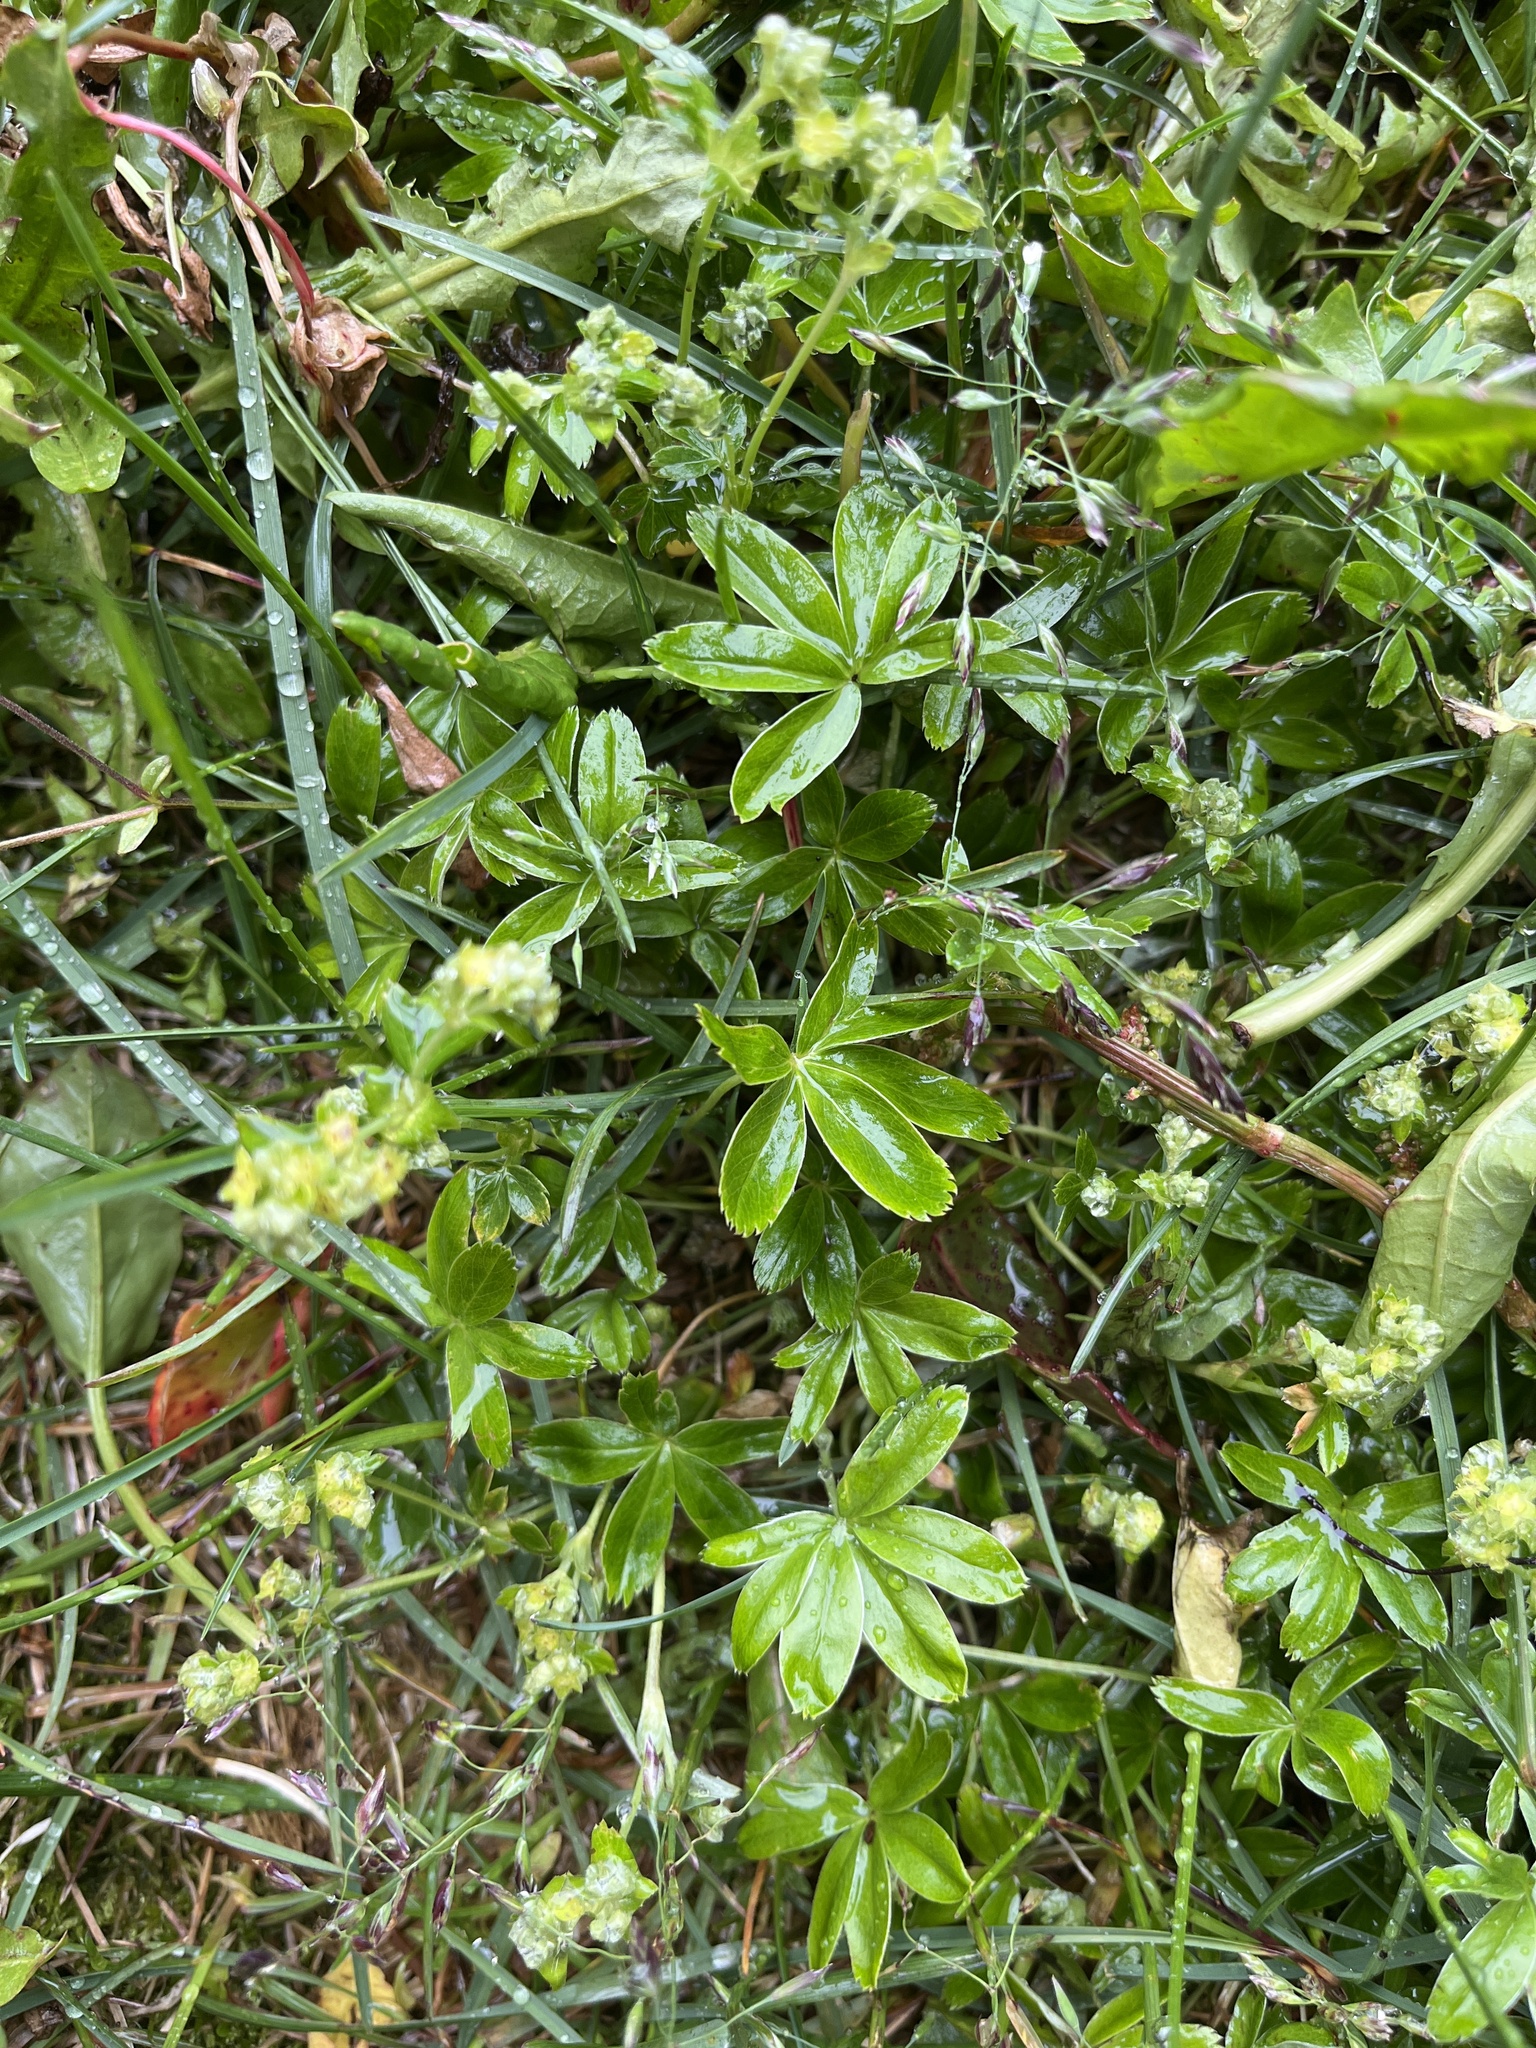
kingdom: Plantae
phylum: Tracheophyta
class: Magnoliopsida
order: Rosales
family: Rosaceae
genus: Alchemilla
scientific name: Alchemilla alpina
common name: Alpine lady's-mantle
